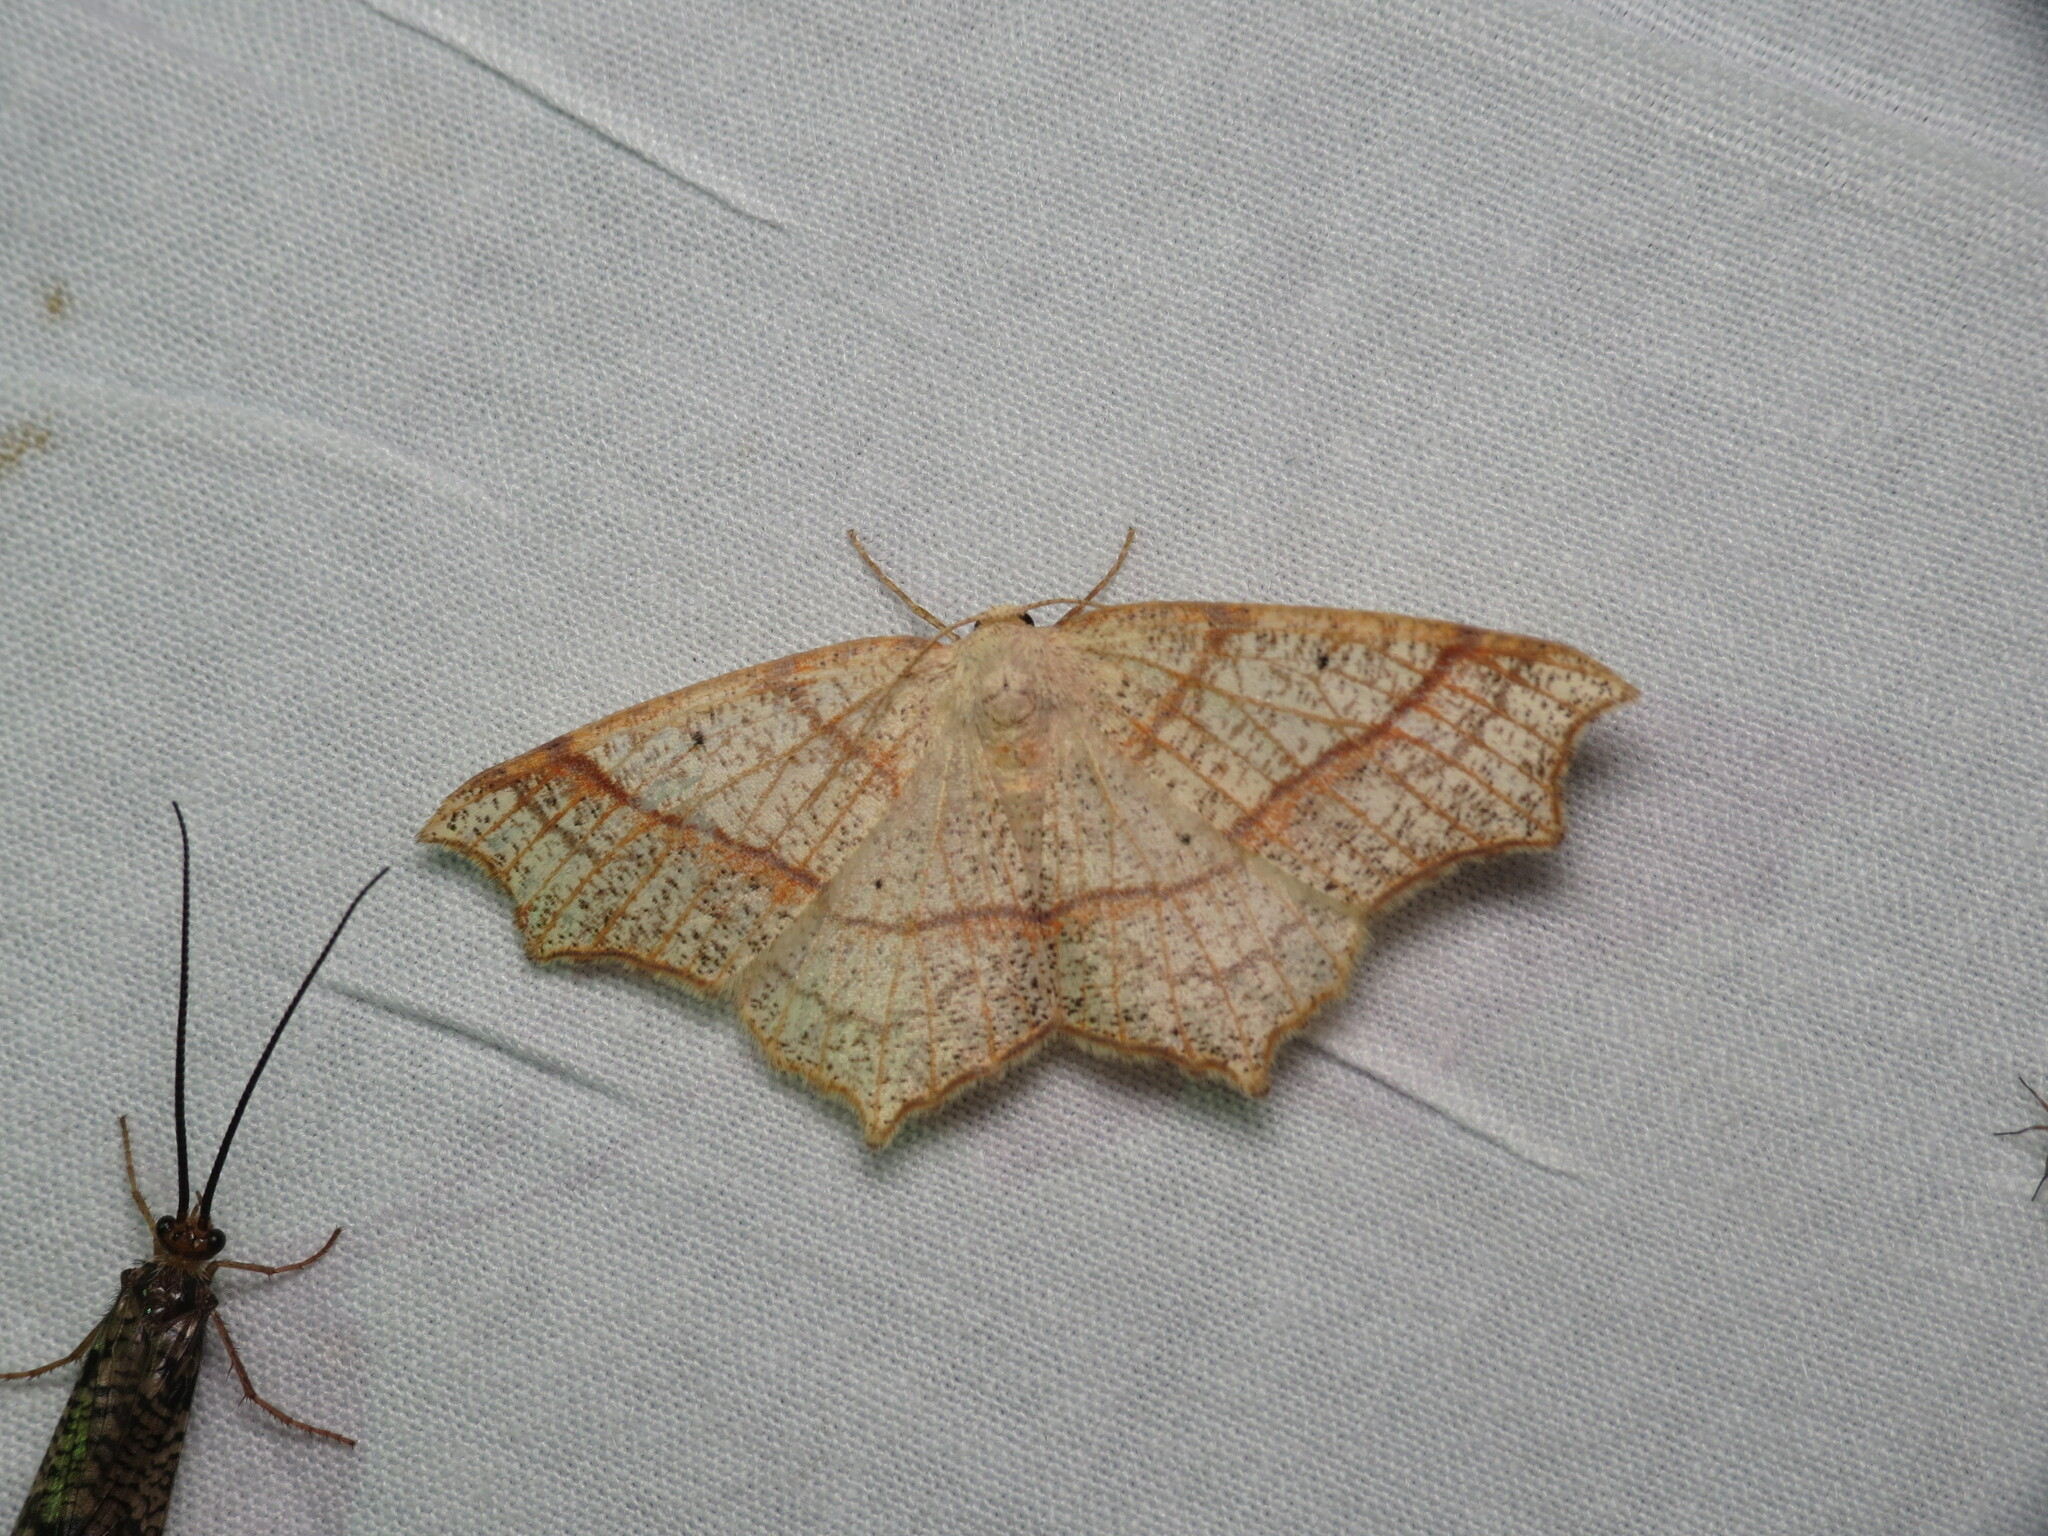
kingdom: Animalia
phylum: Arthropoda
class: Insecta
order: Lepidoptera
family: Geometridae
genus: Besma
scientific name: Besma quercivoraria
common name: Oak besma
